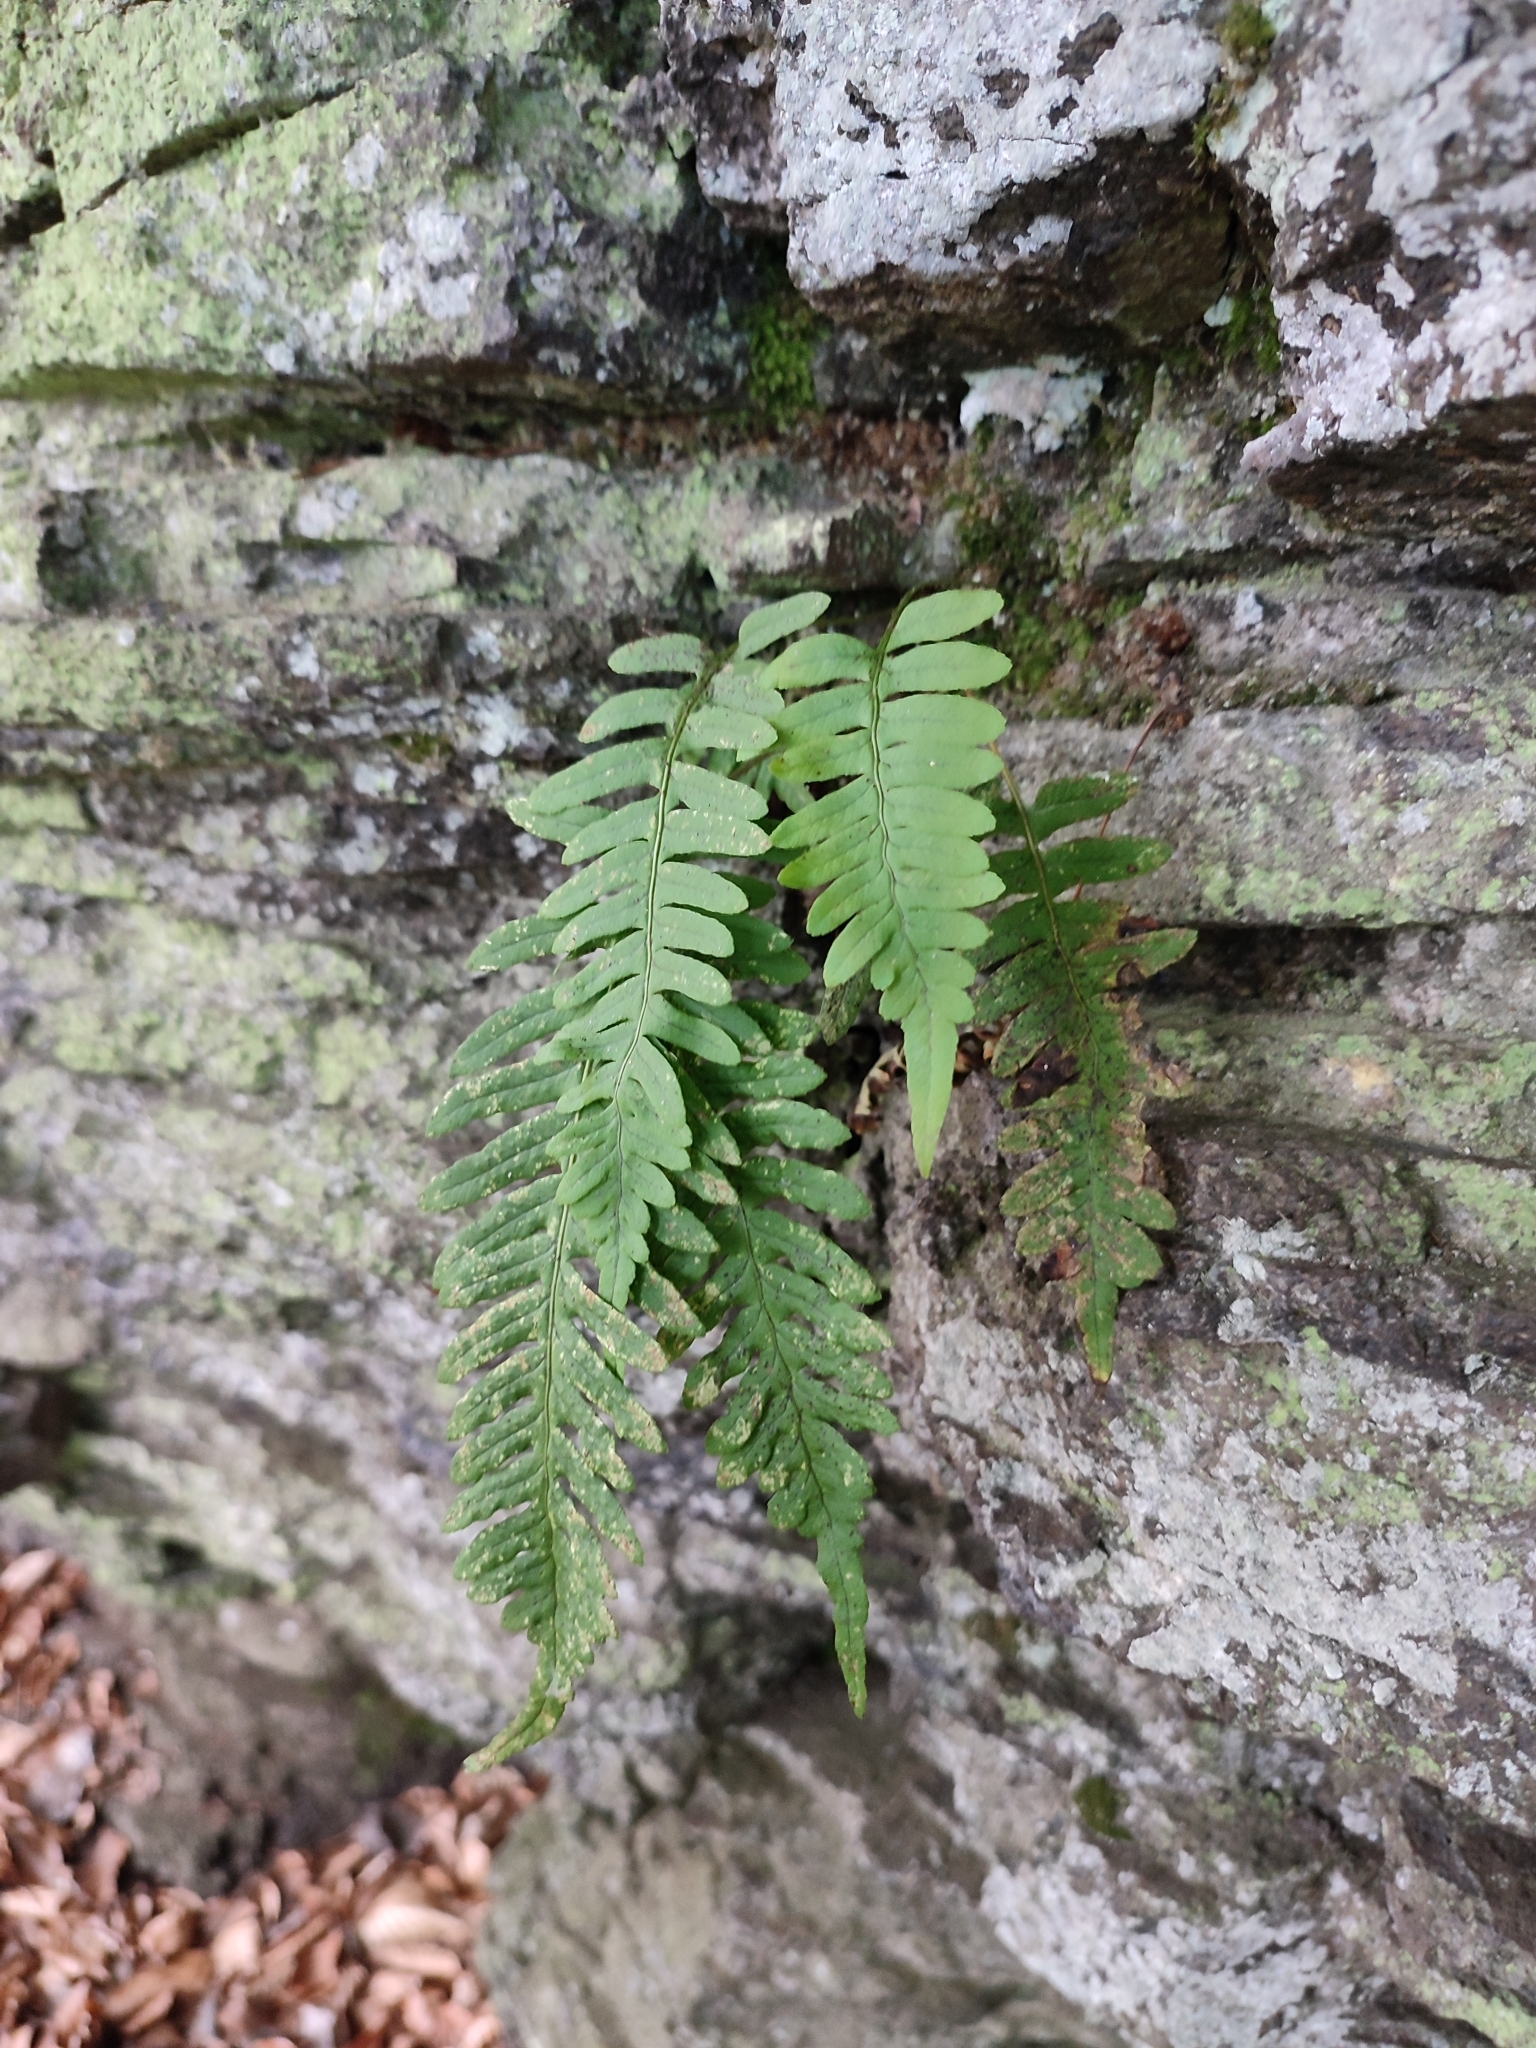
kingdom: Plantae
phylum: Tracheophyta
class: Polypodiopsida
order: Polypodiales
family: Polypodiaceae
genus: Polypodium
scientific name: Polypodium vulgare
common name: Common polypody
